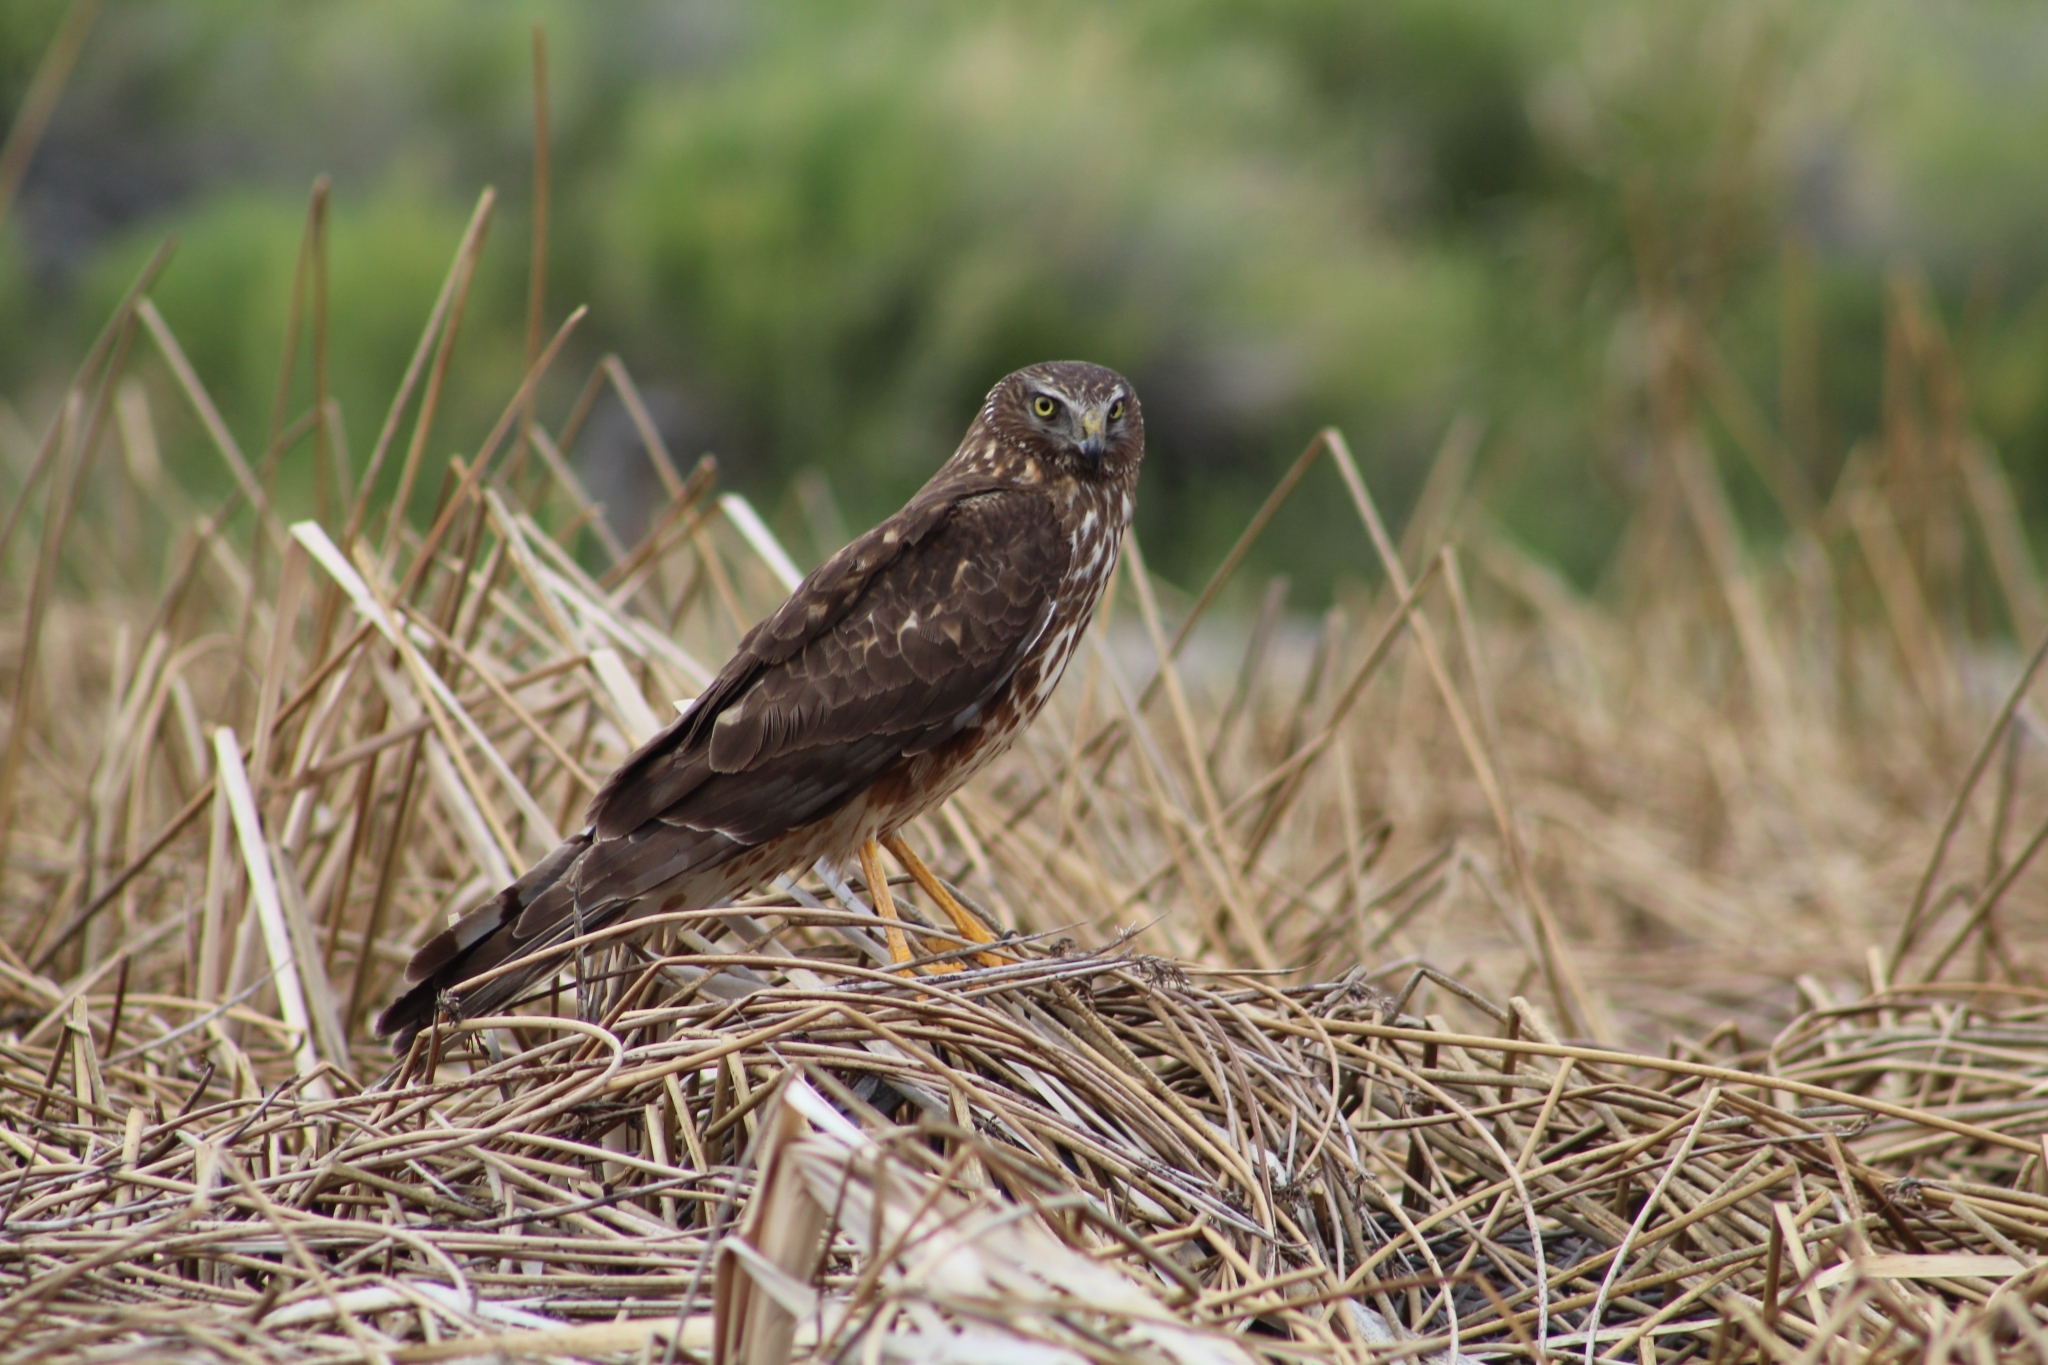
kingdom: Animalia
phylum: Chordata
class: Aves
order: Accipitriformes
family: Accipitridae
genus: Circus
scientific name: Circus cyaneus
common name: Hen harrier
